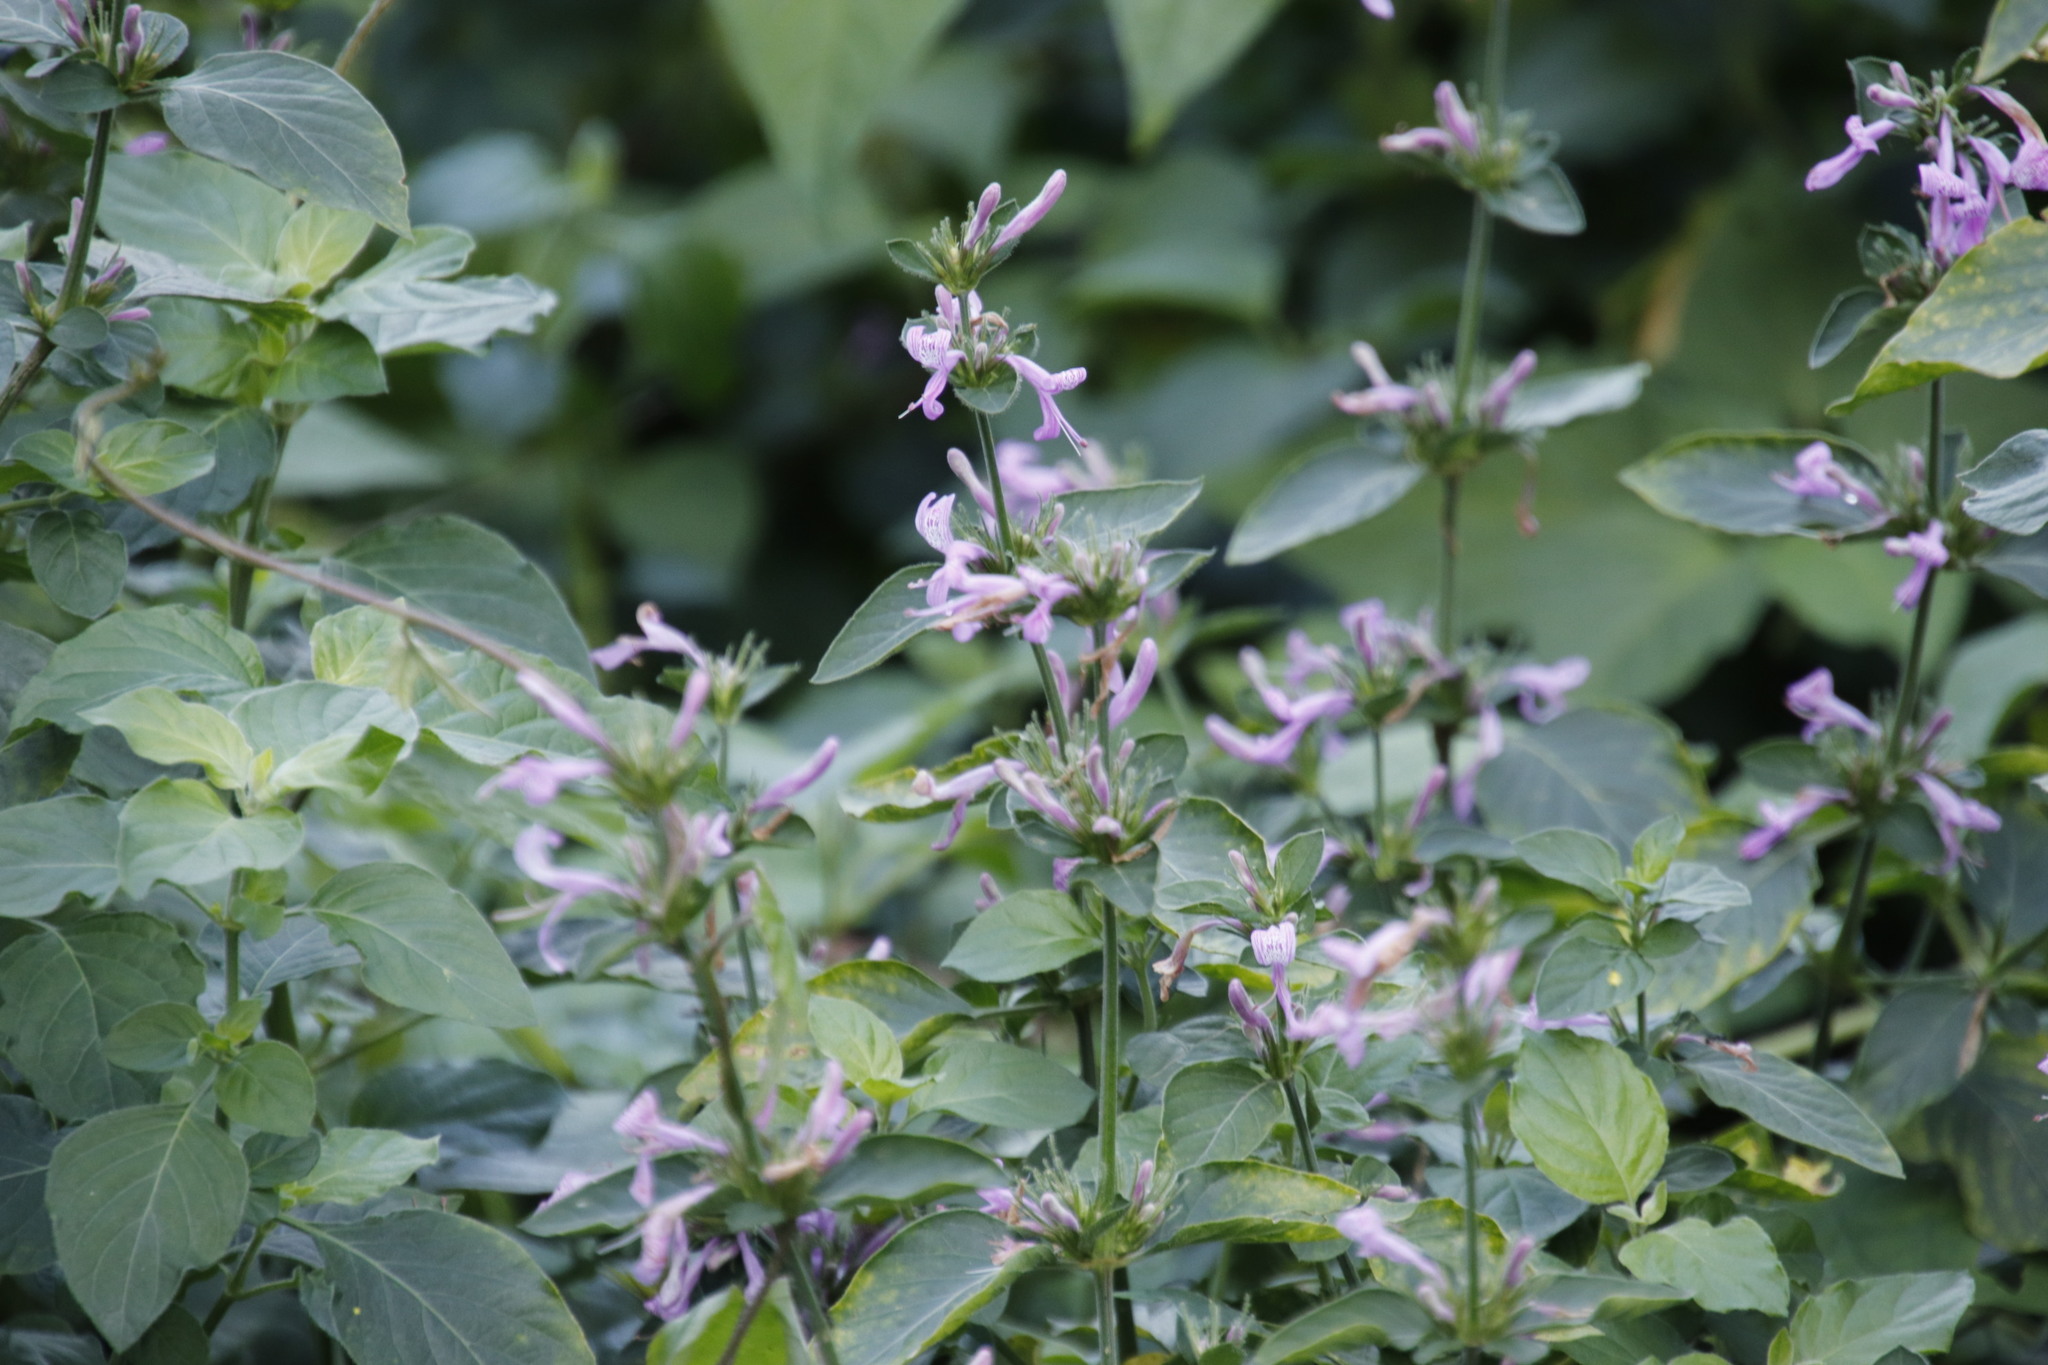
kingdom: Plantae
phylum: Tracheophyta
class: Magnoliopsida
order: Lamiales
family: Acanthaceae
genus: Hypoestes
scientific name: Hypoestes aristata
